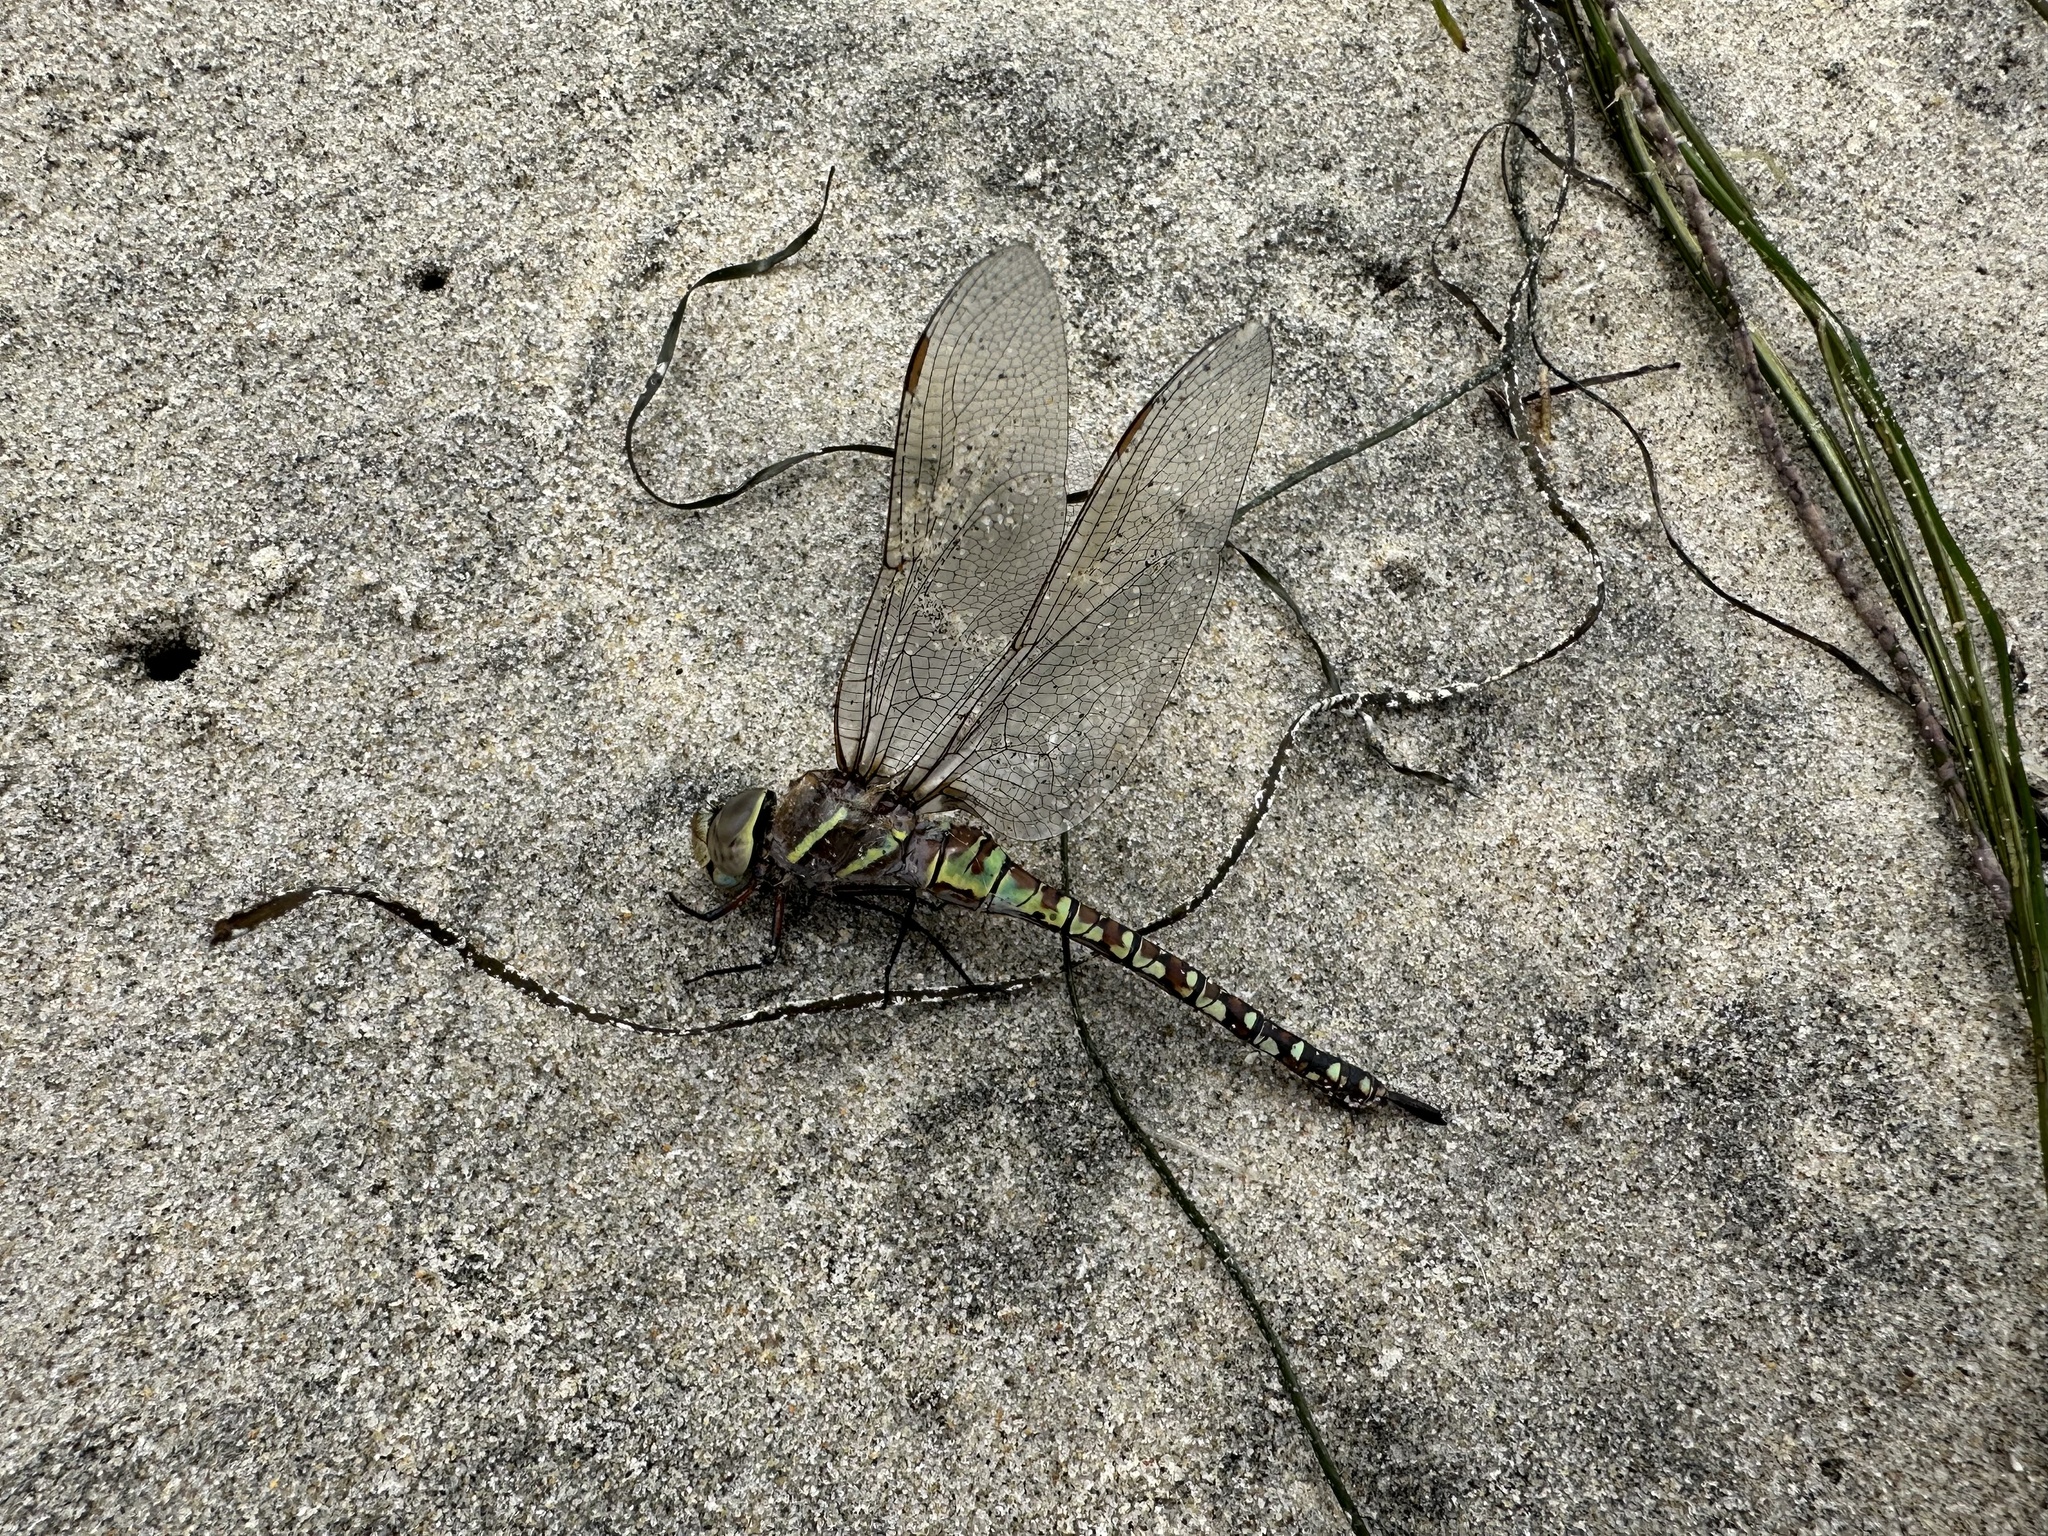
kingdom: Animalia
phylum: Arthropoda
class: Insecta
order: Odonata
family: Aeshnidae
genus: Rhionaeschna
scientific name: Rhionaeschna multicolor
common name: Blue-eyed darner
